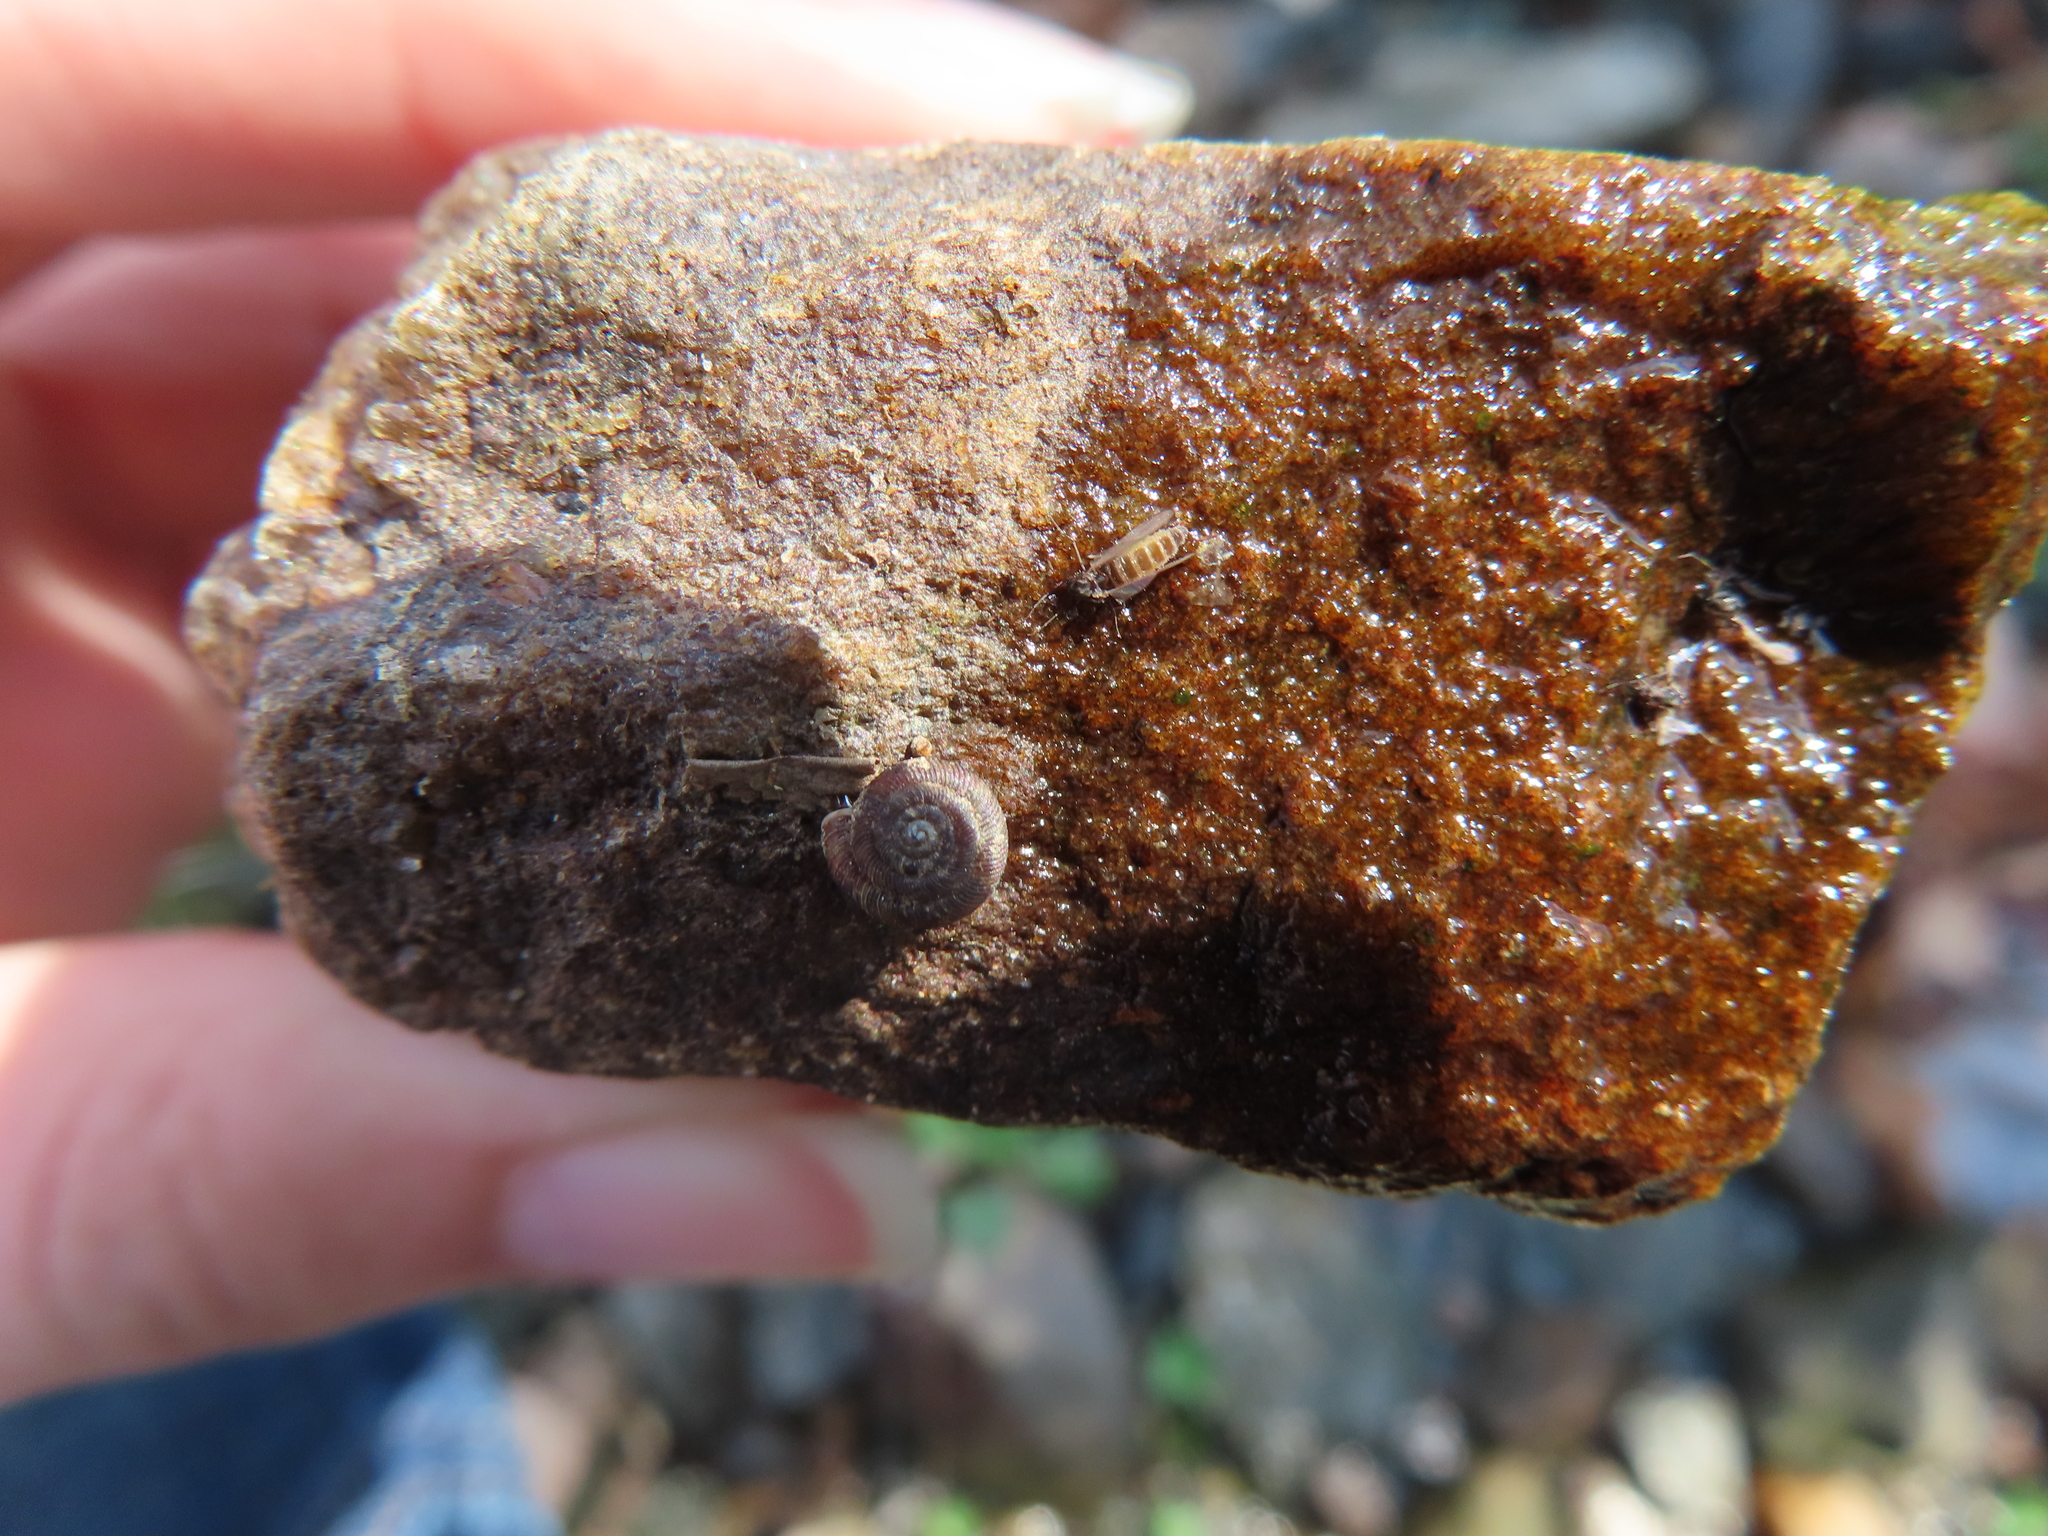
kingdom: Animalia
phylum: Mollusca
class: Gastropoda
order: Stylommatophora
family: Discidae
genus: Discus
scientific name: Discus rotundatus
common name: Rounded snail
